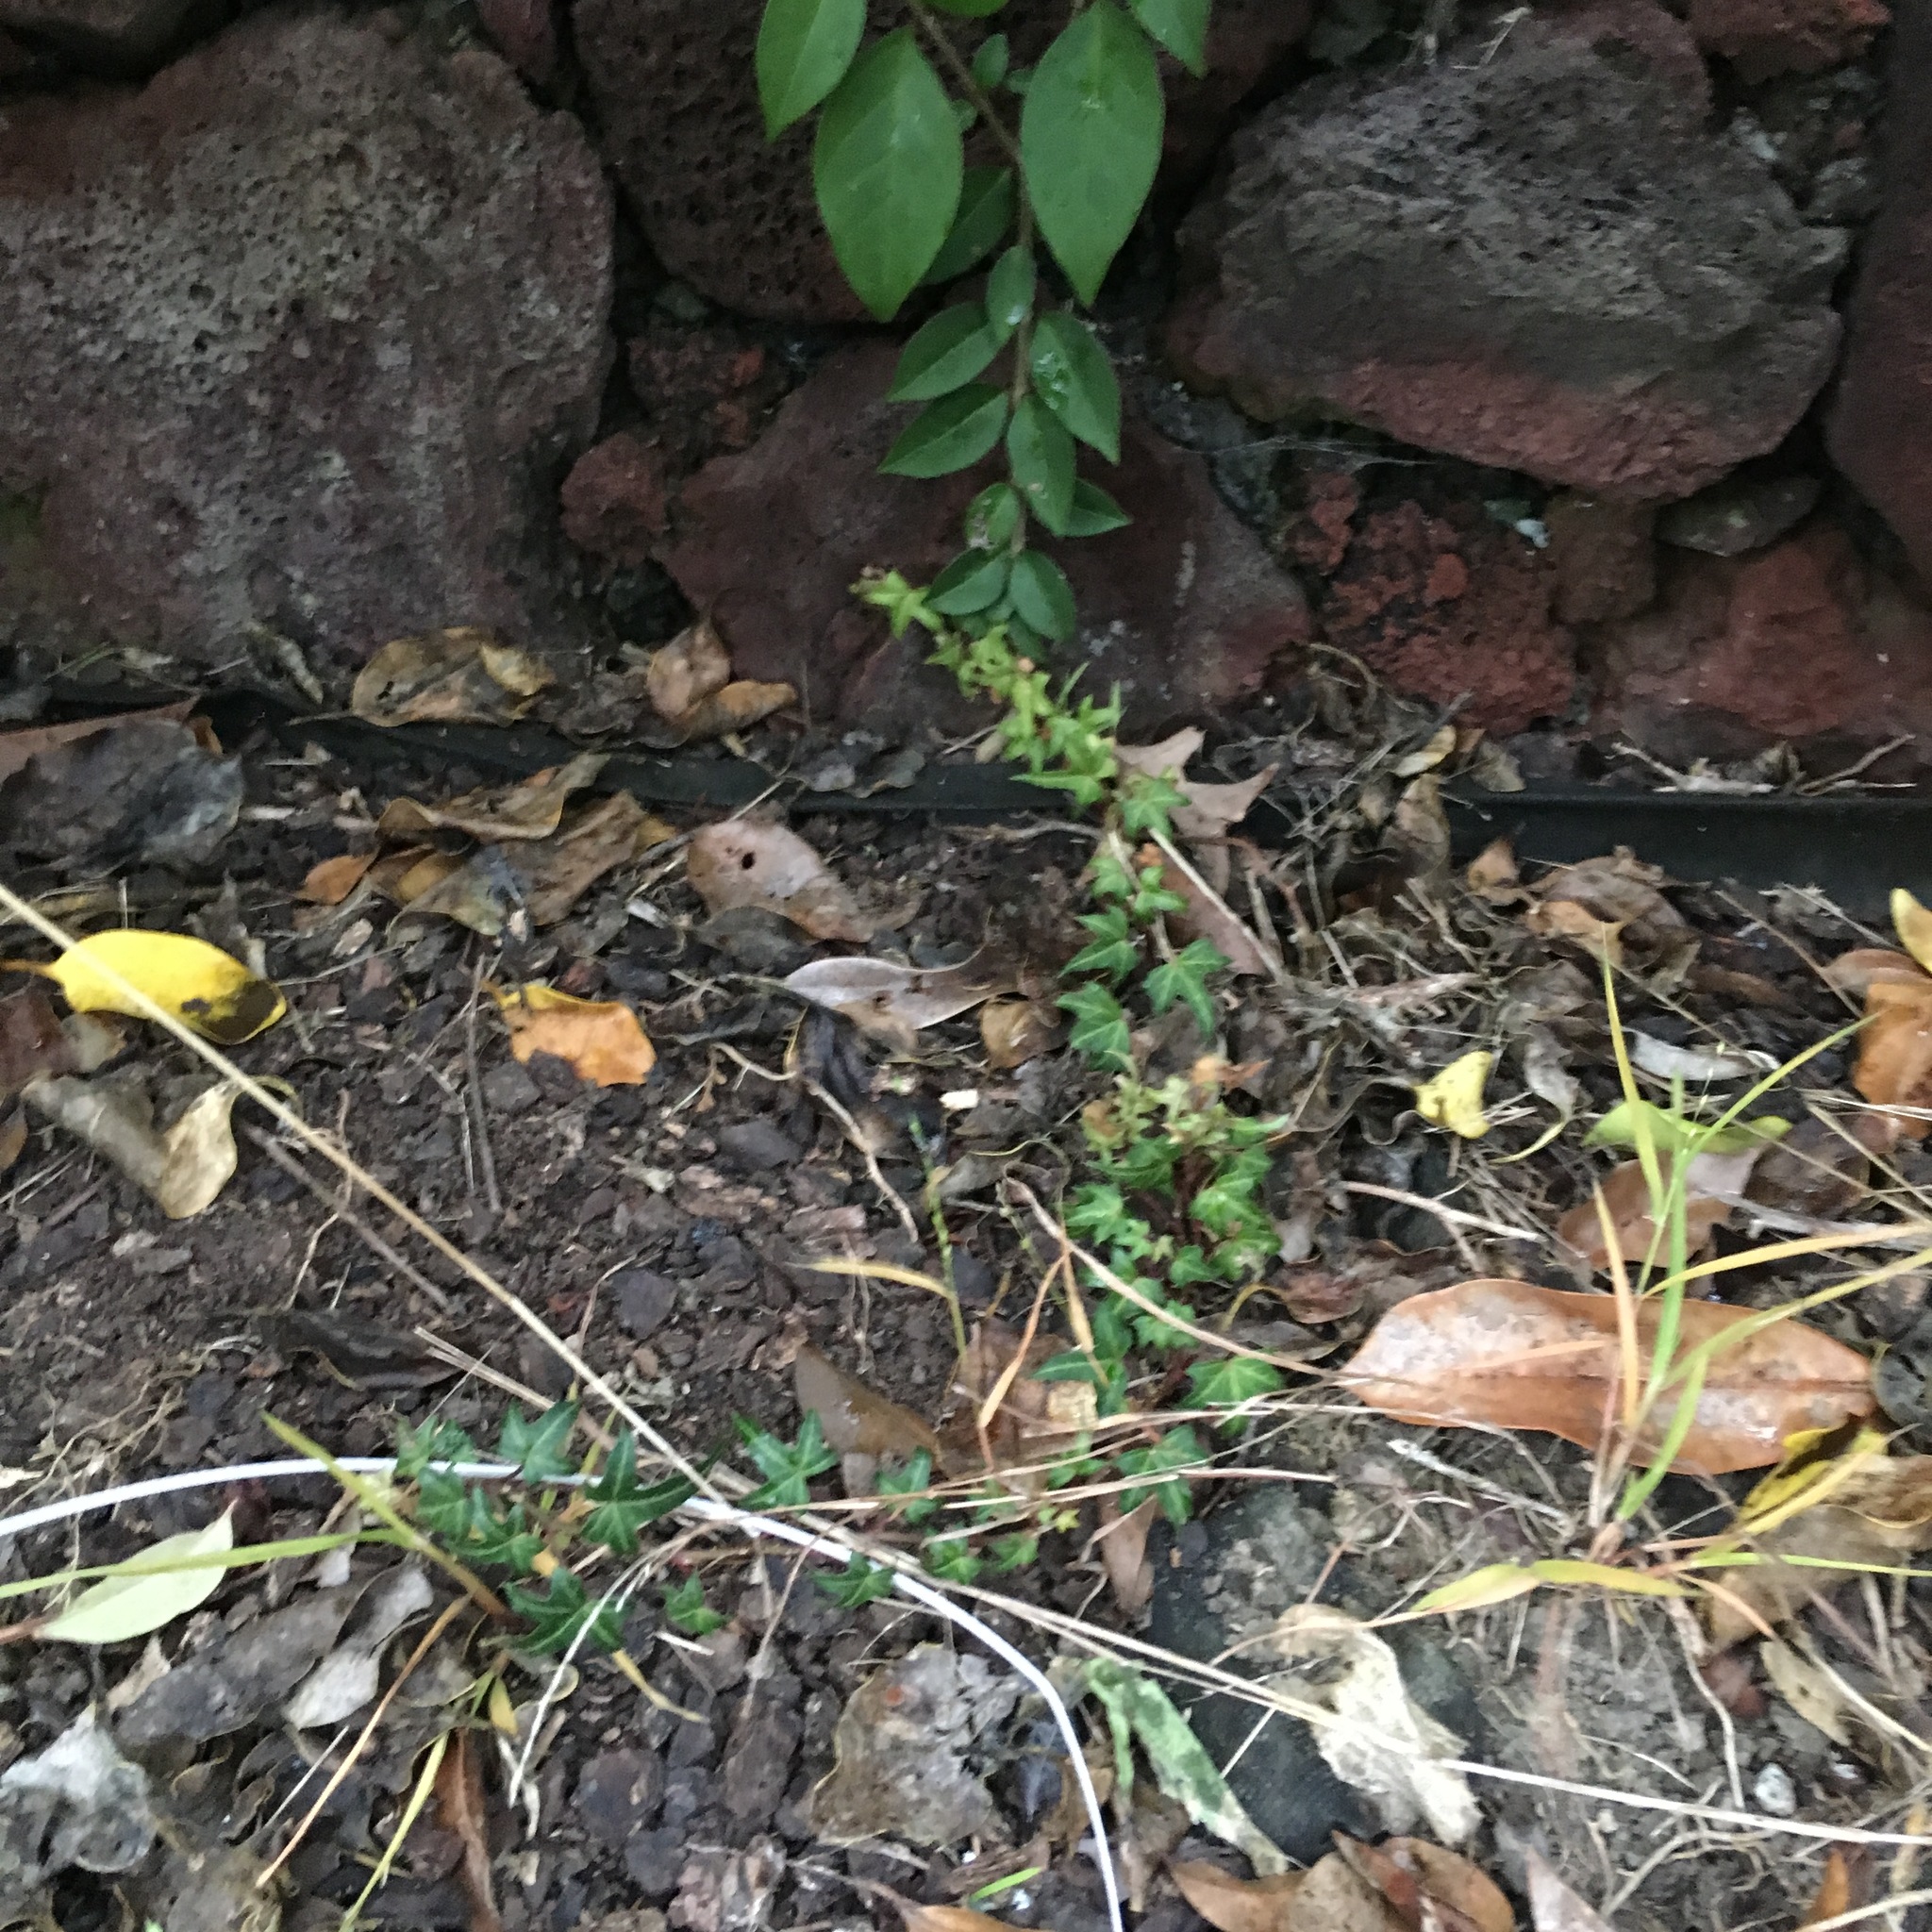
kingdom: Plantae
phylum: Tracheophyta
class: Magnoliopsida
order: Lamiales
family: Oleaceae
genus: Ligustrum
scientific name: Ligustrum lucidum
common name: Glossy privet
